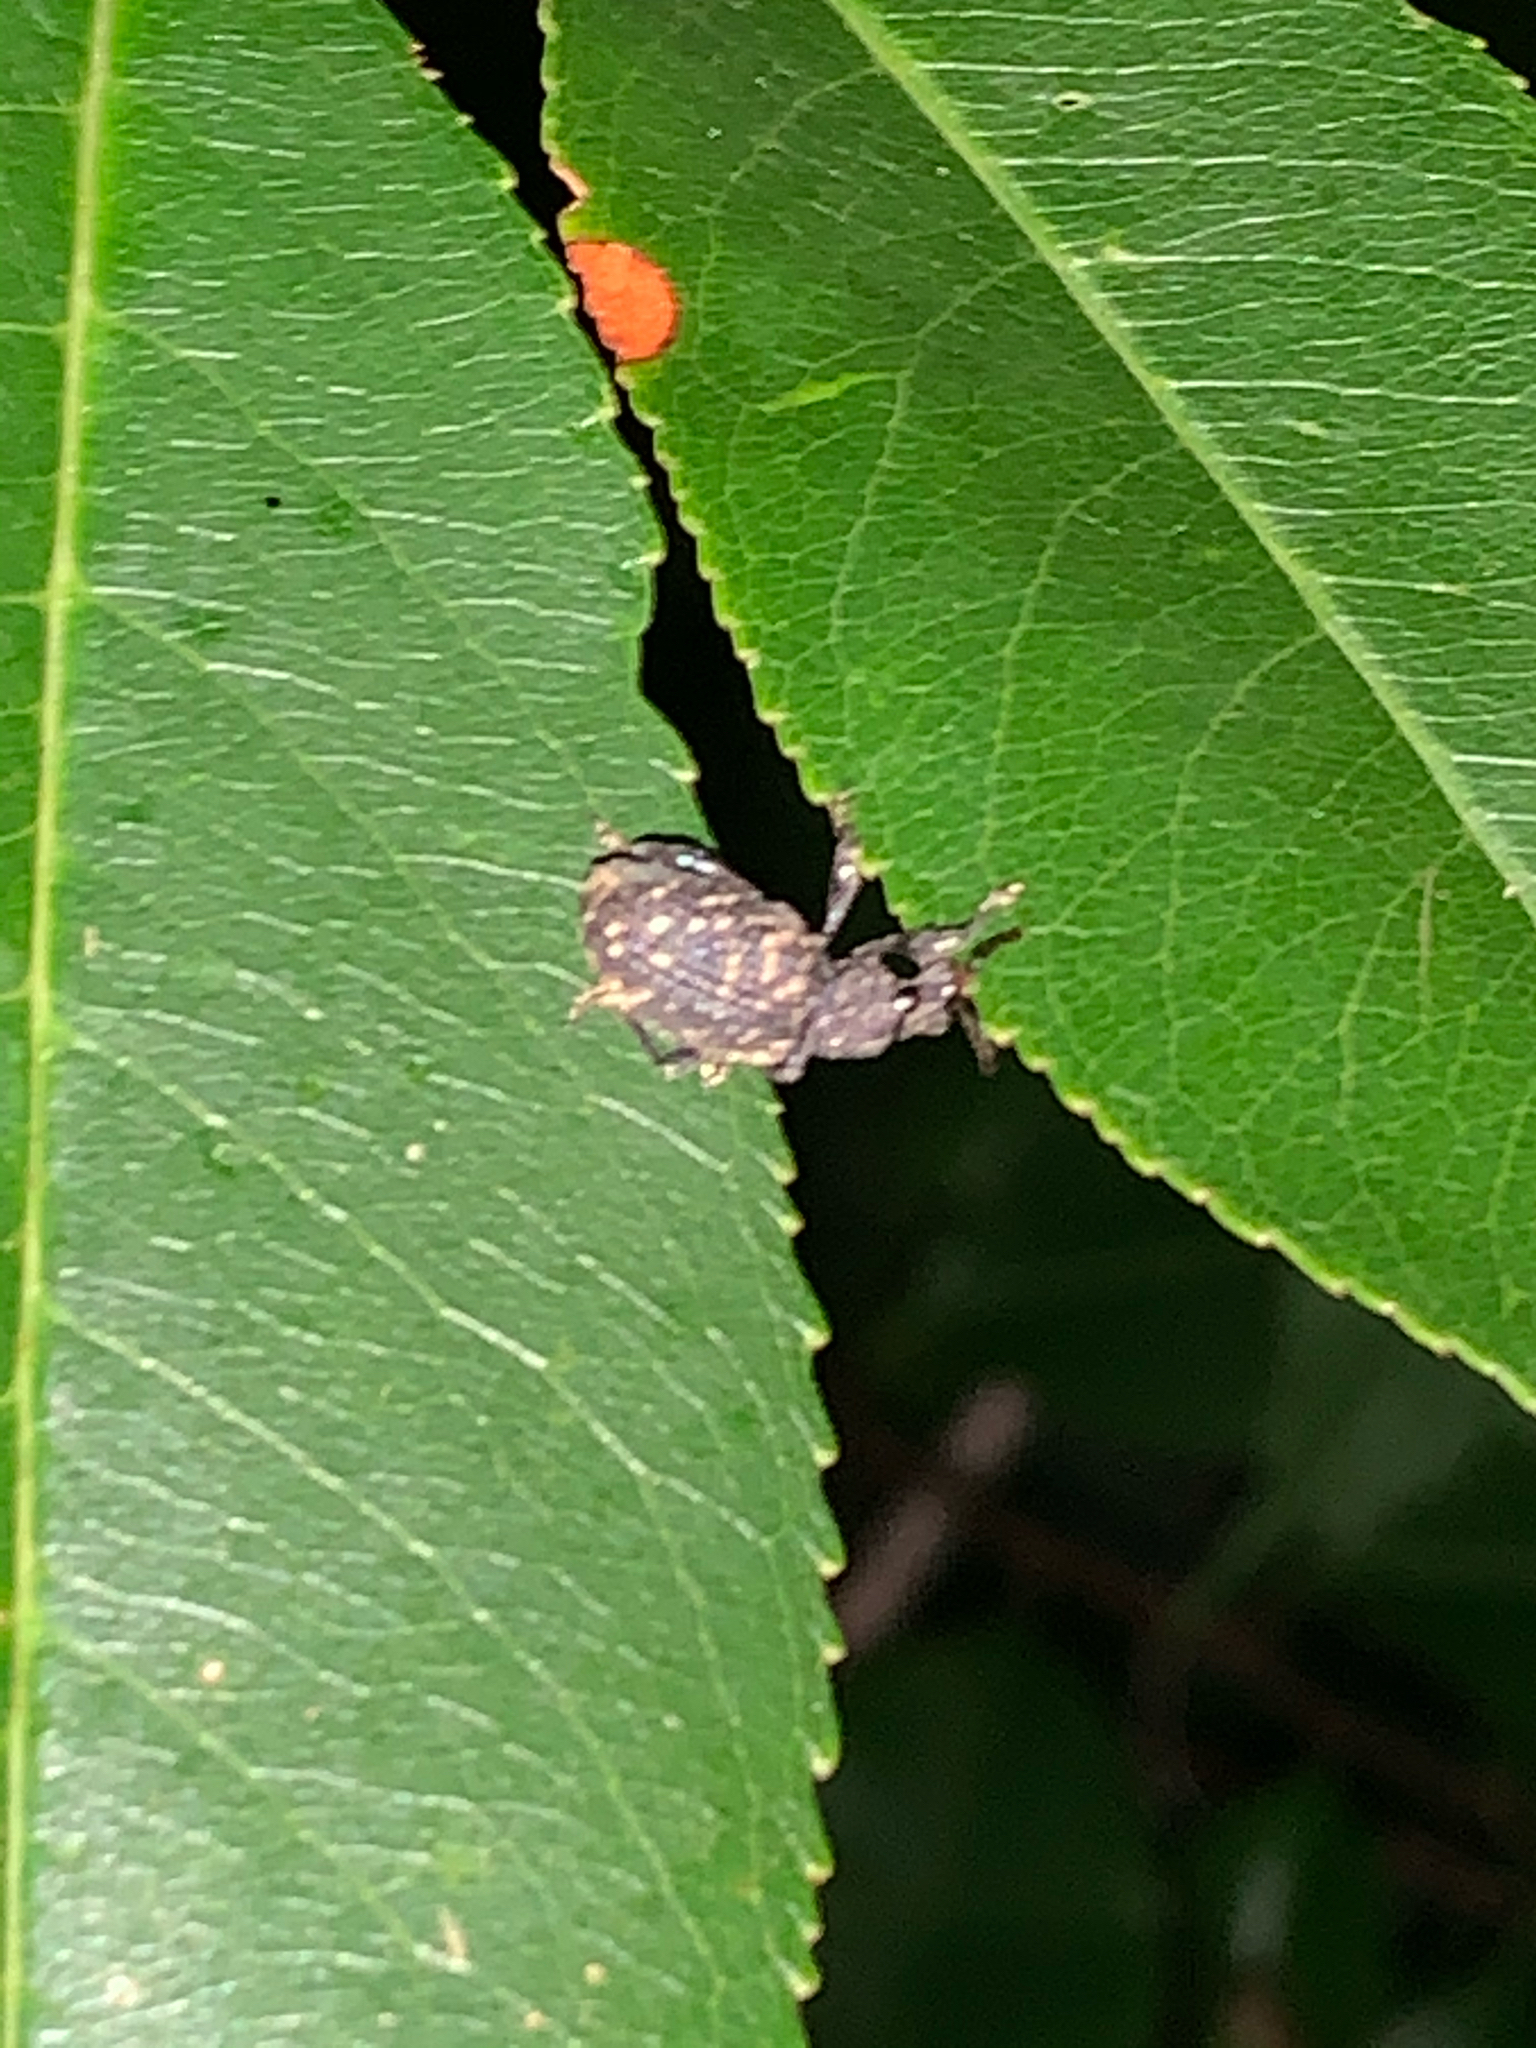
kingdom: Animalia
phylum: Arthropoda
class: Insecta
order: Coleoptera
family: Curculionidae
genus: Otiorhynchus
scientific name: Otiorhynchus sulcatus
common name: Black vine weevil
